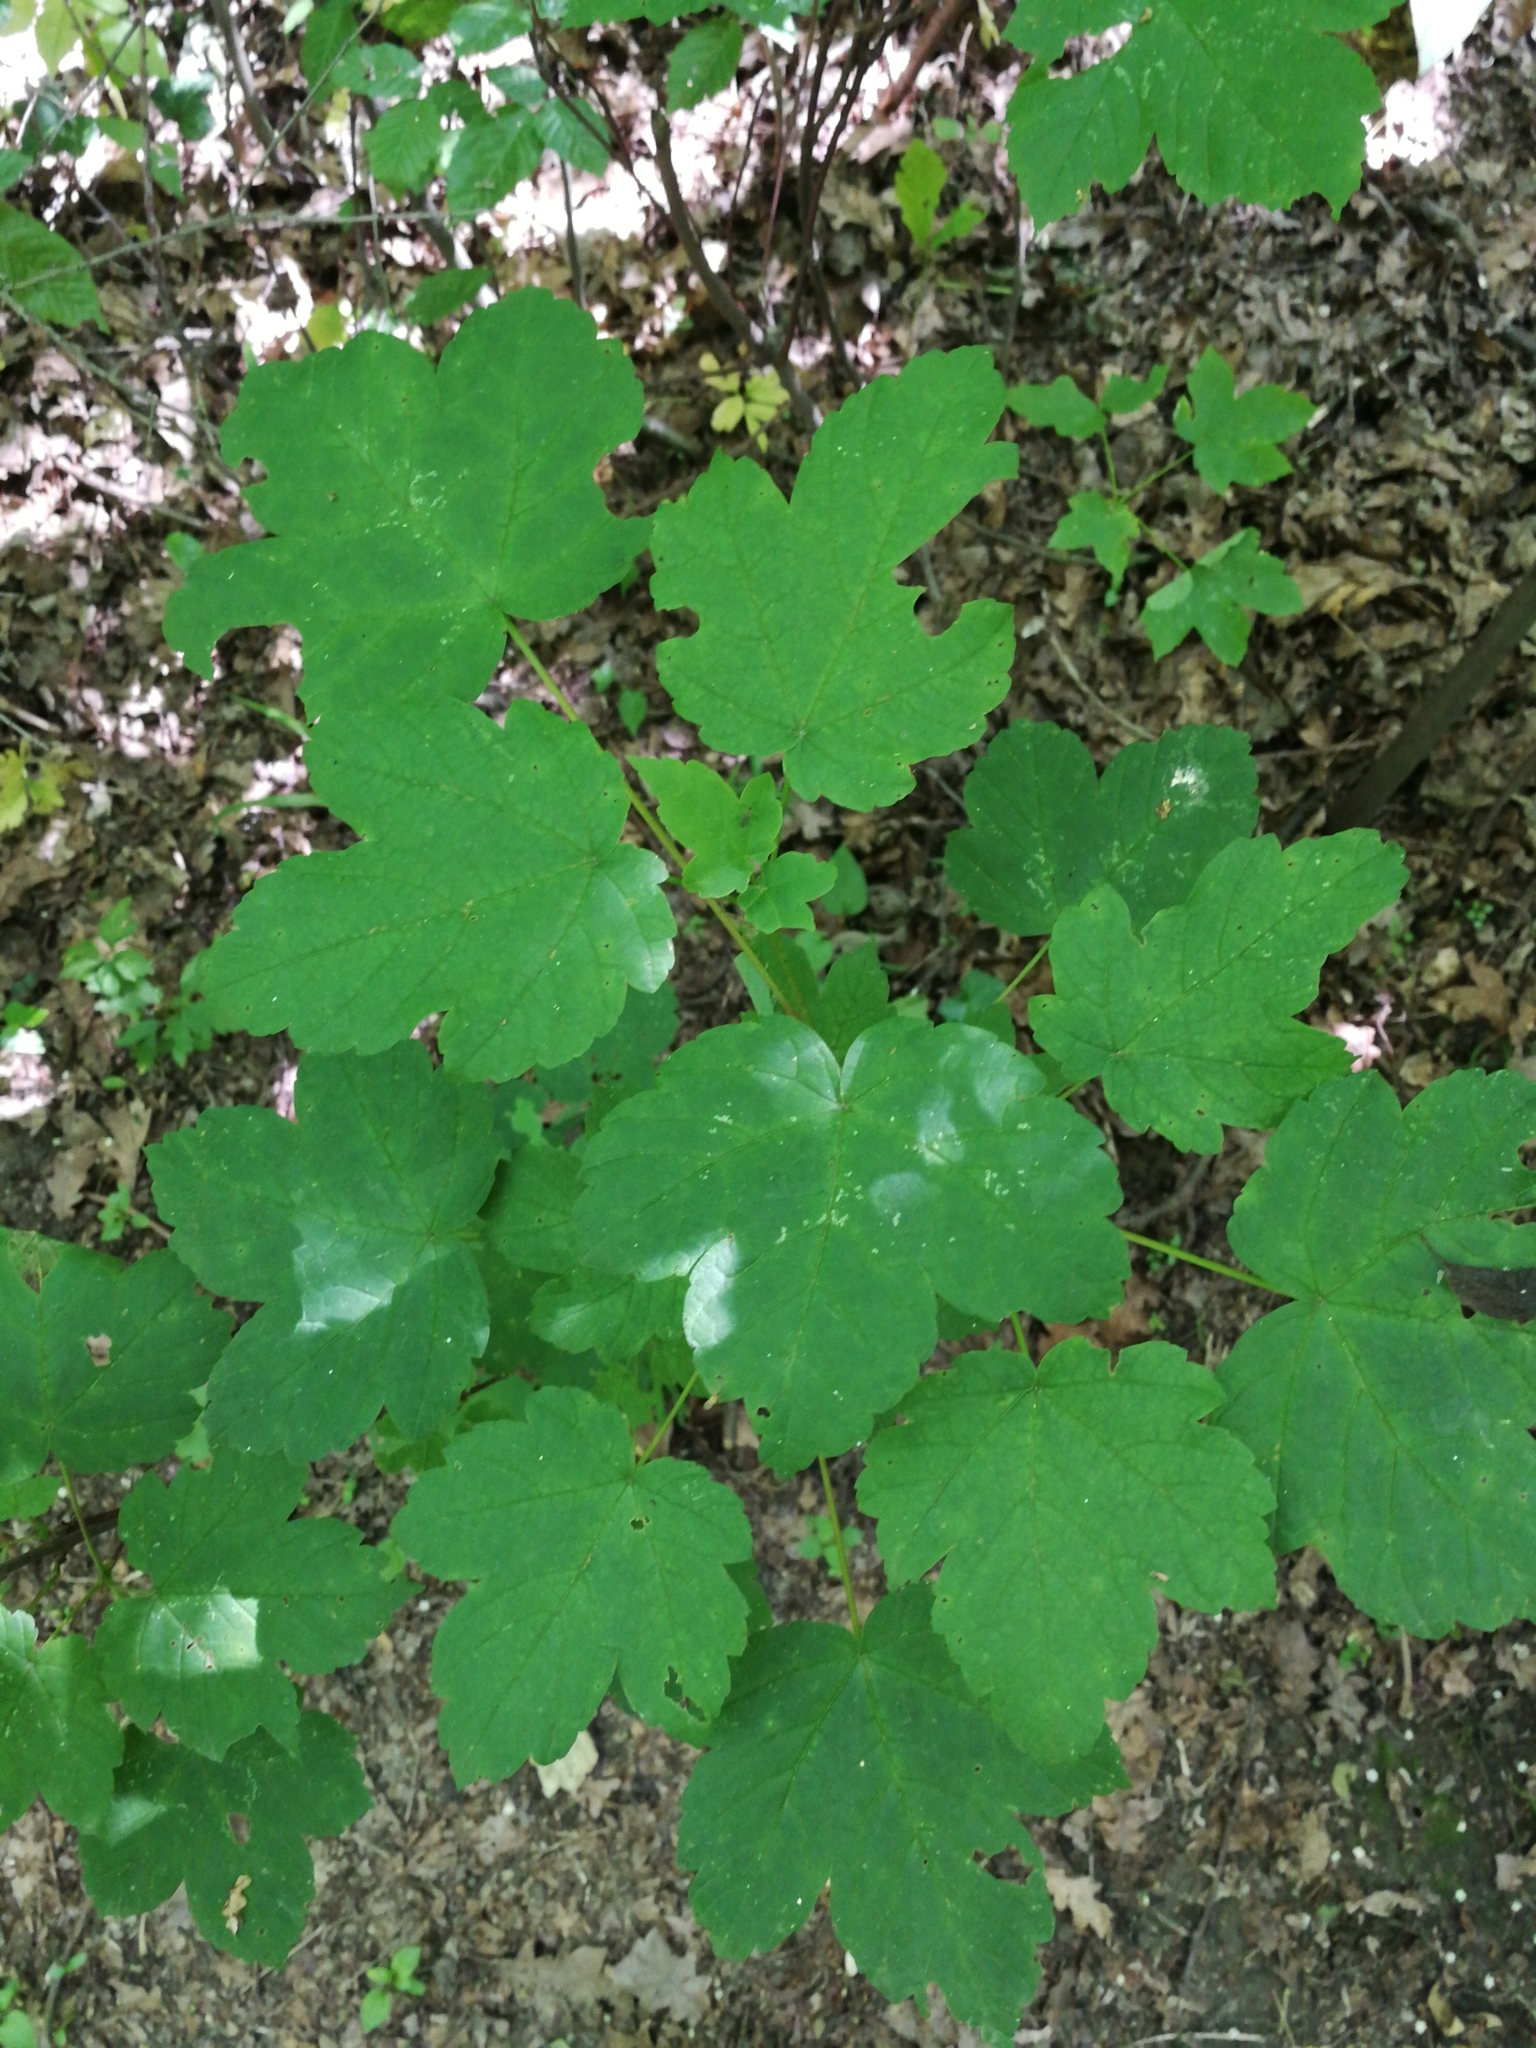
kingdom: Plantae
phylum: Tracheophyta
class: Magnoliopsida
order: Sapindales
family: Sapindaceae
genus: Acer
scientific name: Acer pseudoplatanus
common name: Sycamore
